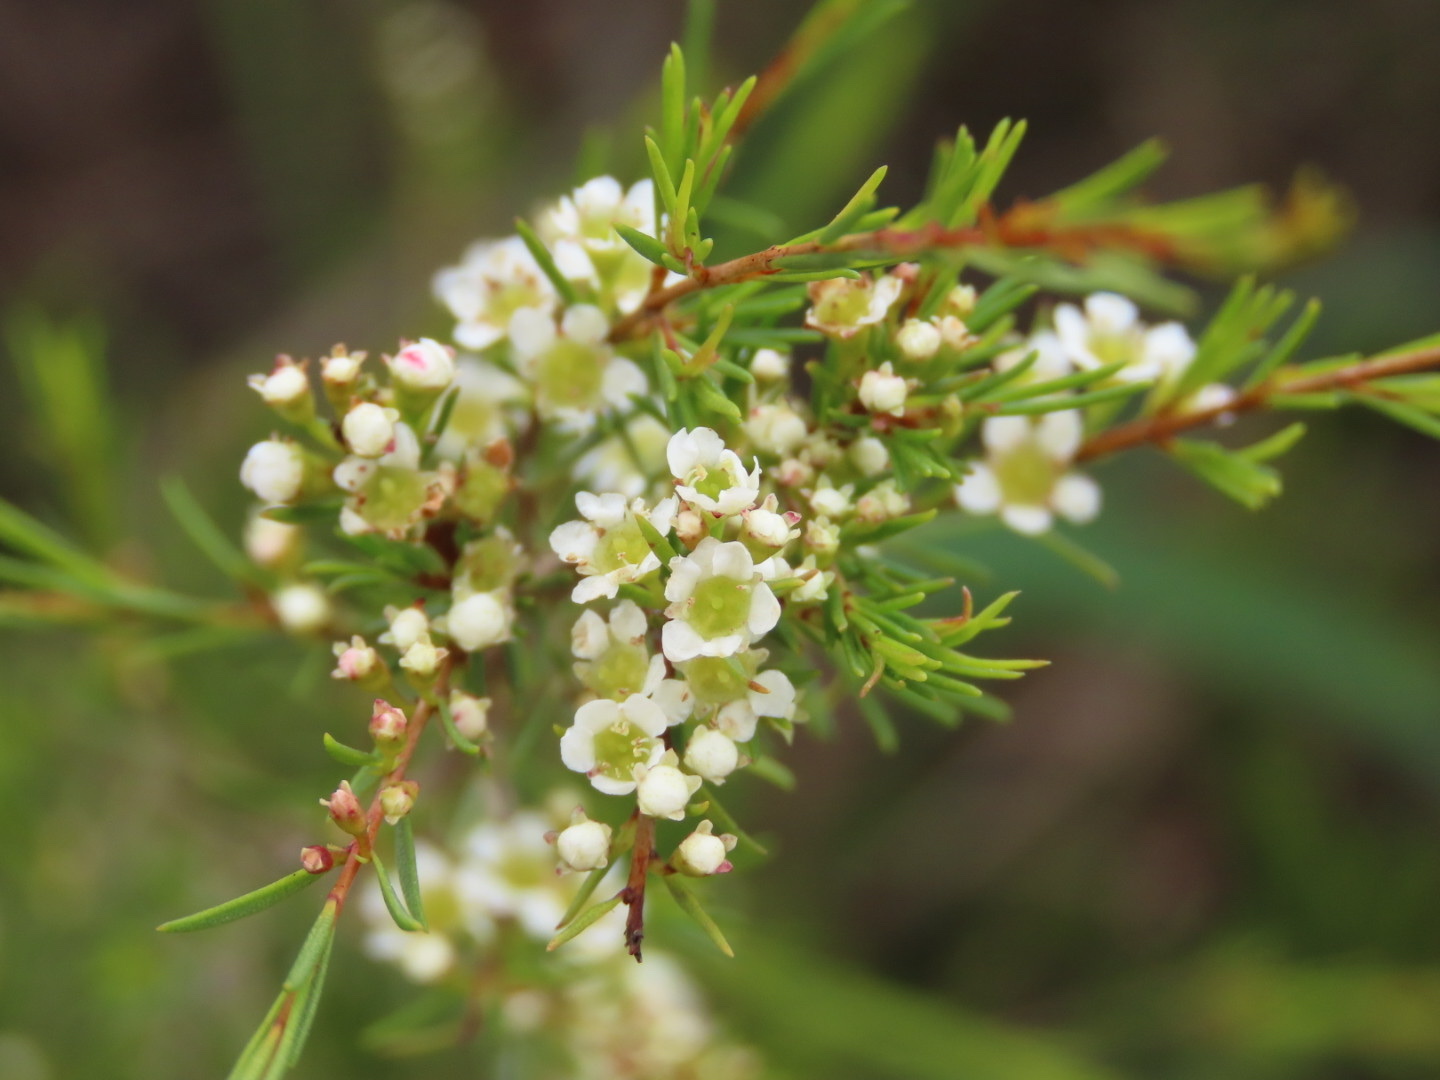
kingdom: Plantae
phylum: Tracheophyta
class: Magnoliopsida
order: Myrtales
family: Myrtaceae
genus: Baeckea
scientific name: Baeckea frutescens
